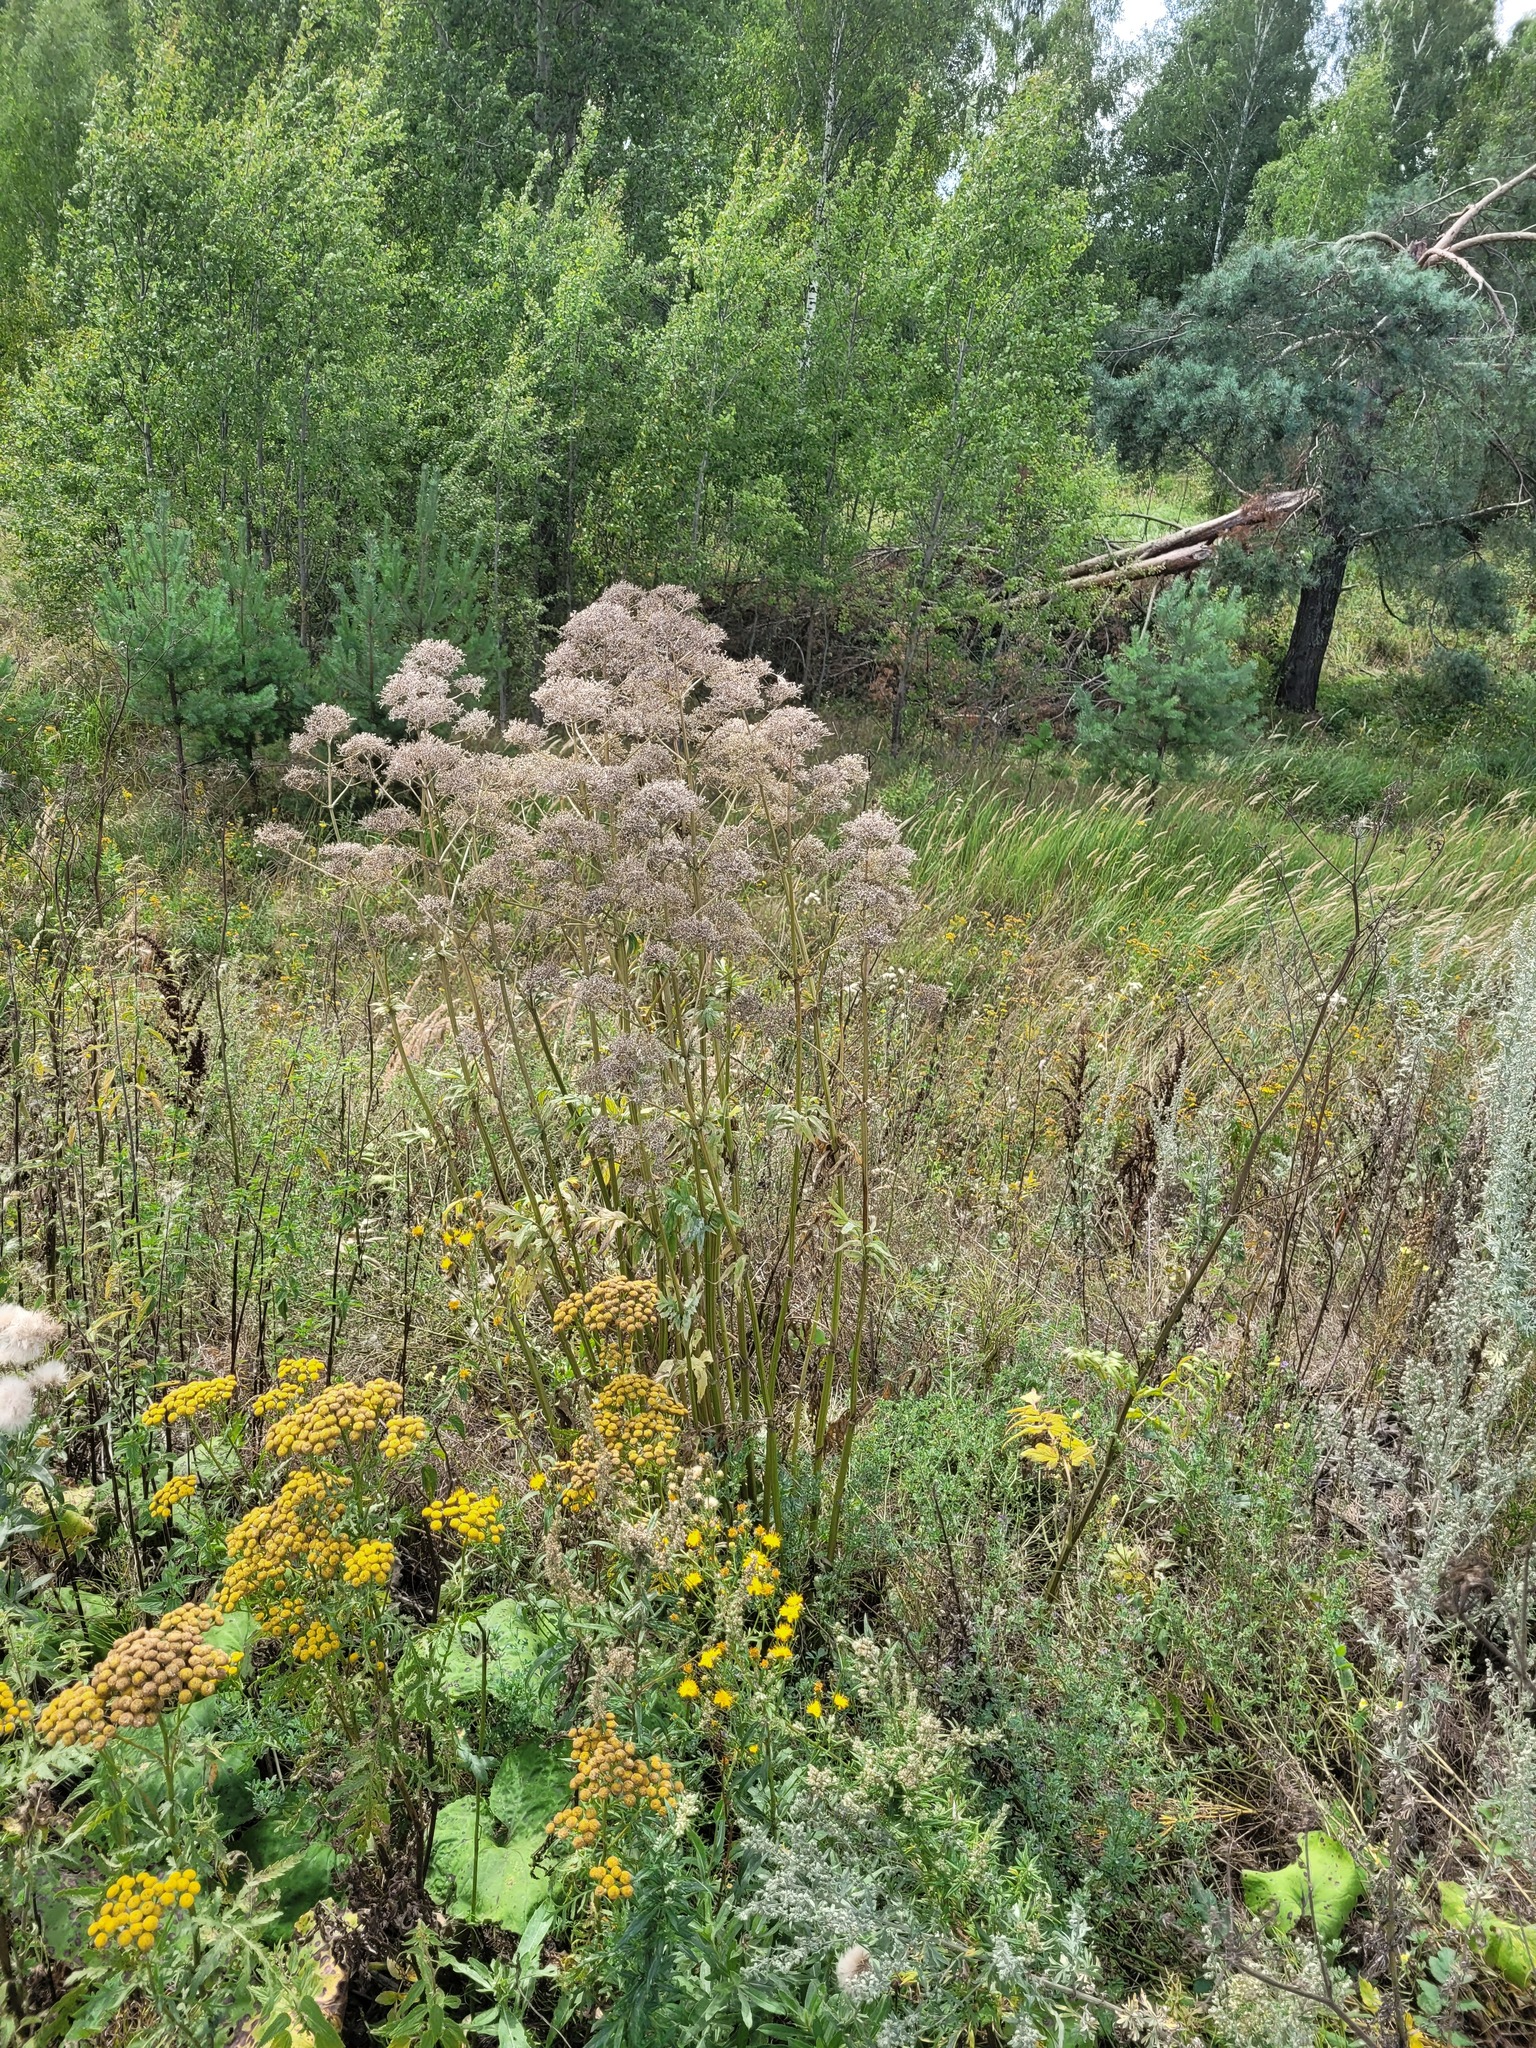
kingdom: Plantae
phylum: Tracheophyta
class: Magnoliopsida
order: Dipsacales
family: Caprifoliaceae
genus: Valeriana
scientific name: Valeriana officinalis
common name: Common valerian
